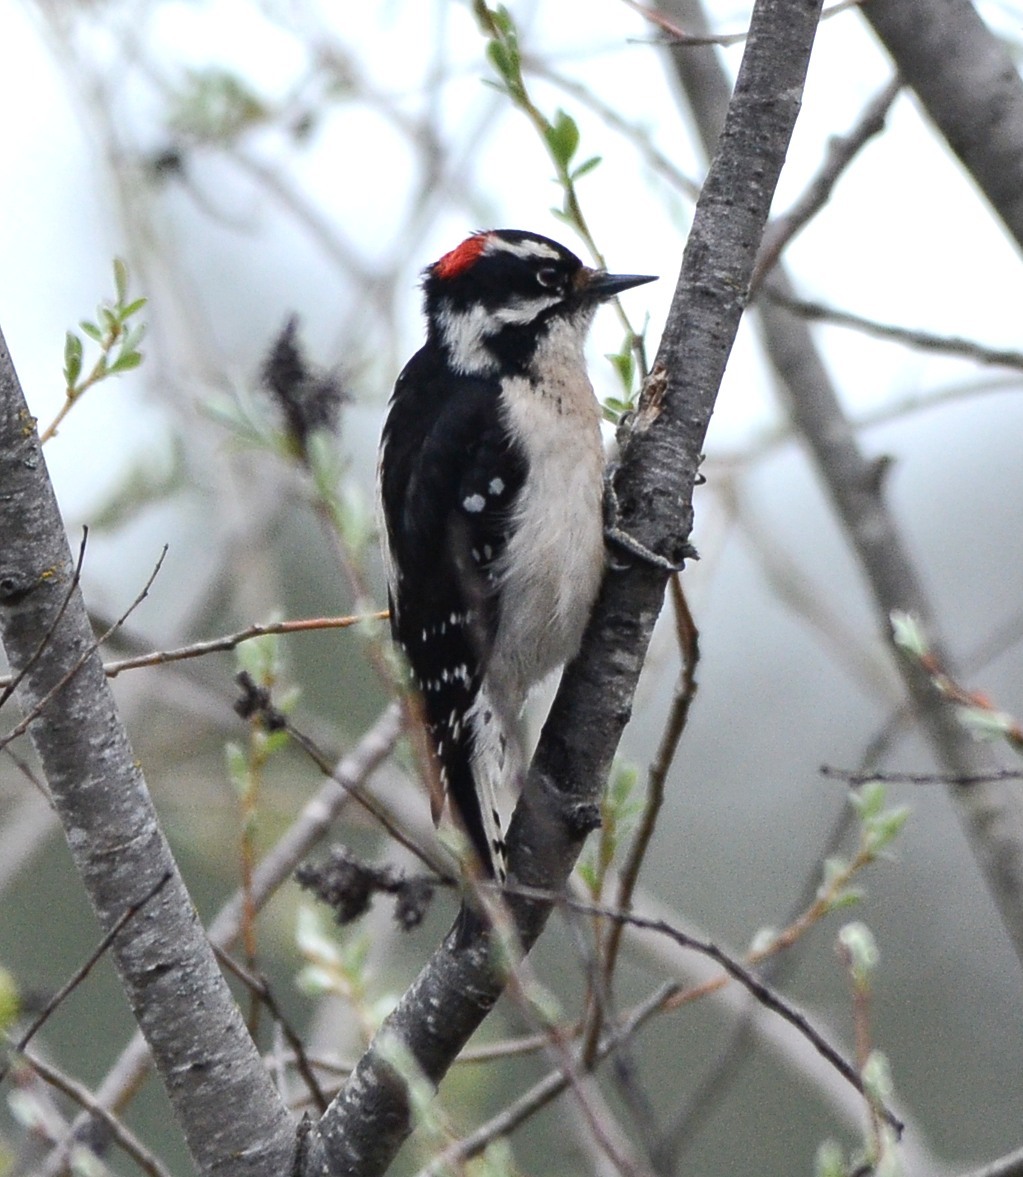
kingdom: Animalia
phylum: Chordata
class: Aves
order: Piciformes
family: Picidae
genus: Dryobates
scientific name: Dryobates pubescens
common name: Downy woodpecker
